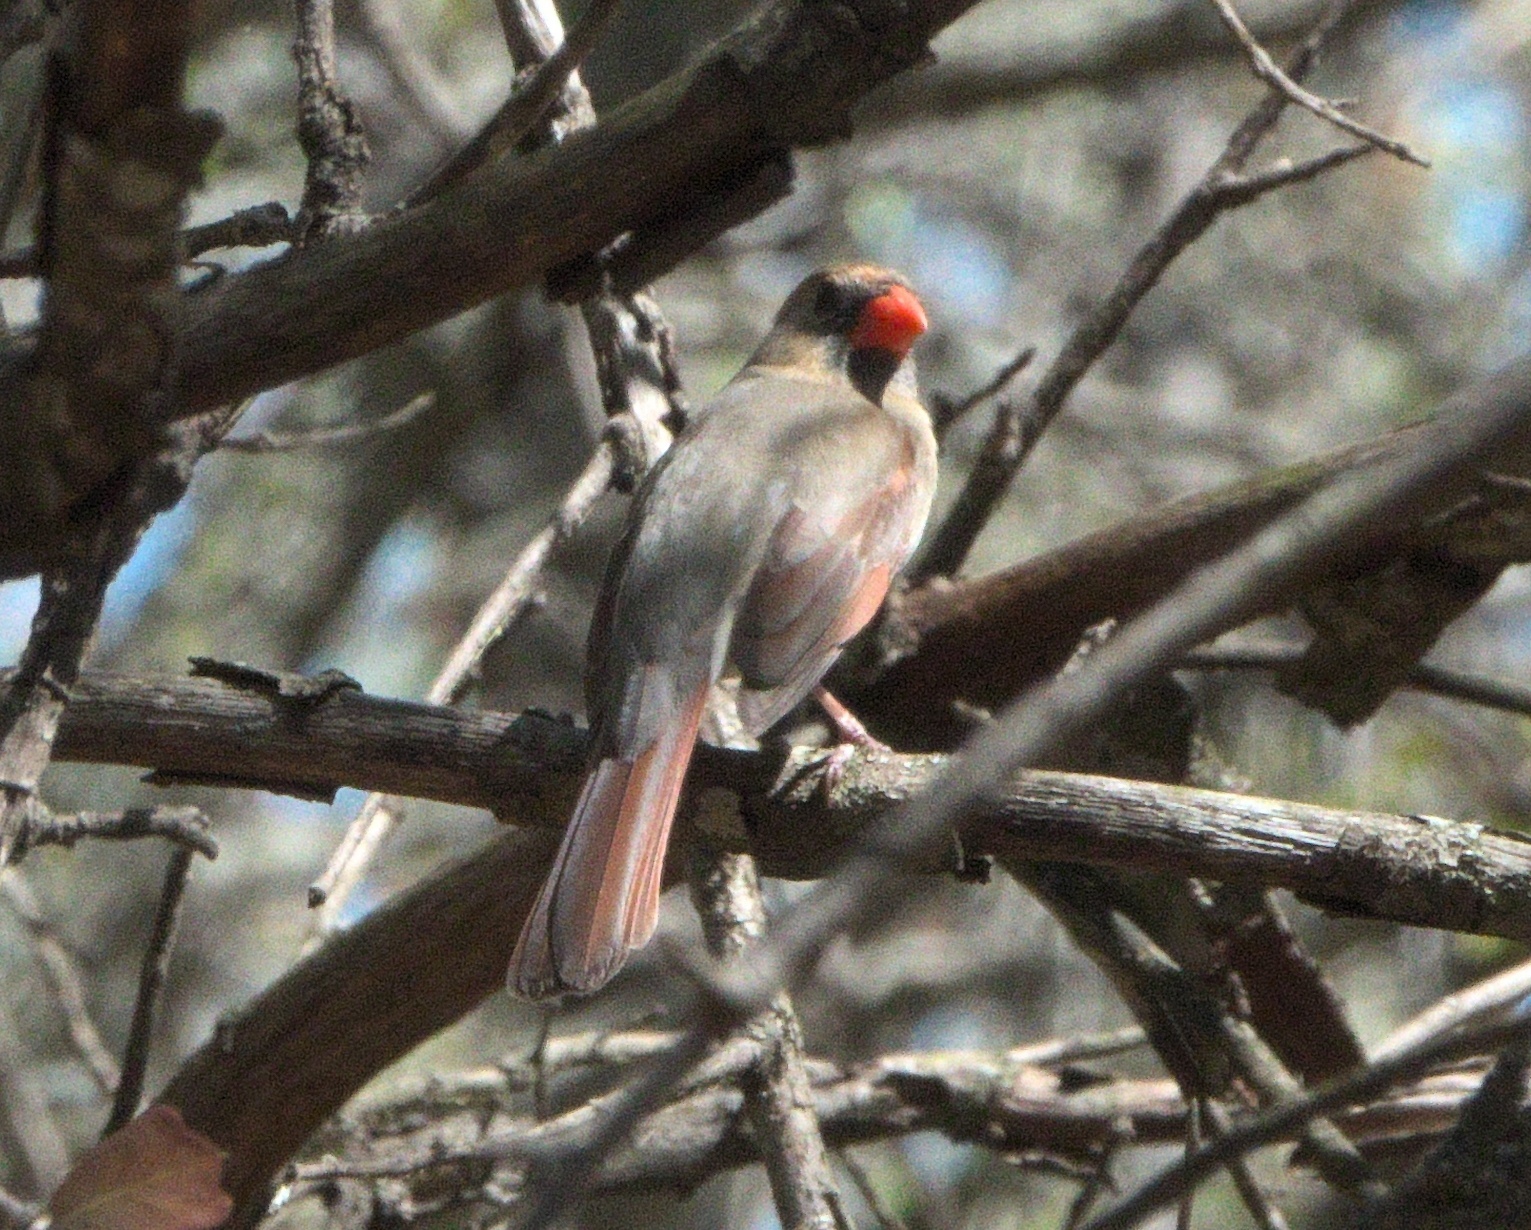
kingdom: Animalia
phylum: Chordata
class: Aves
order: Passeriformes
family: Cardinalidae
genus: Cardinalis
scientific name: Cardinalis cardinalis
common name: Northern cardinal
